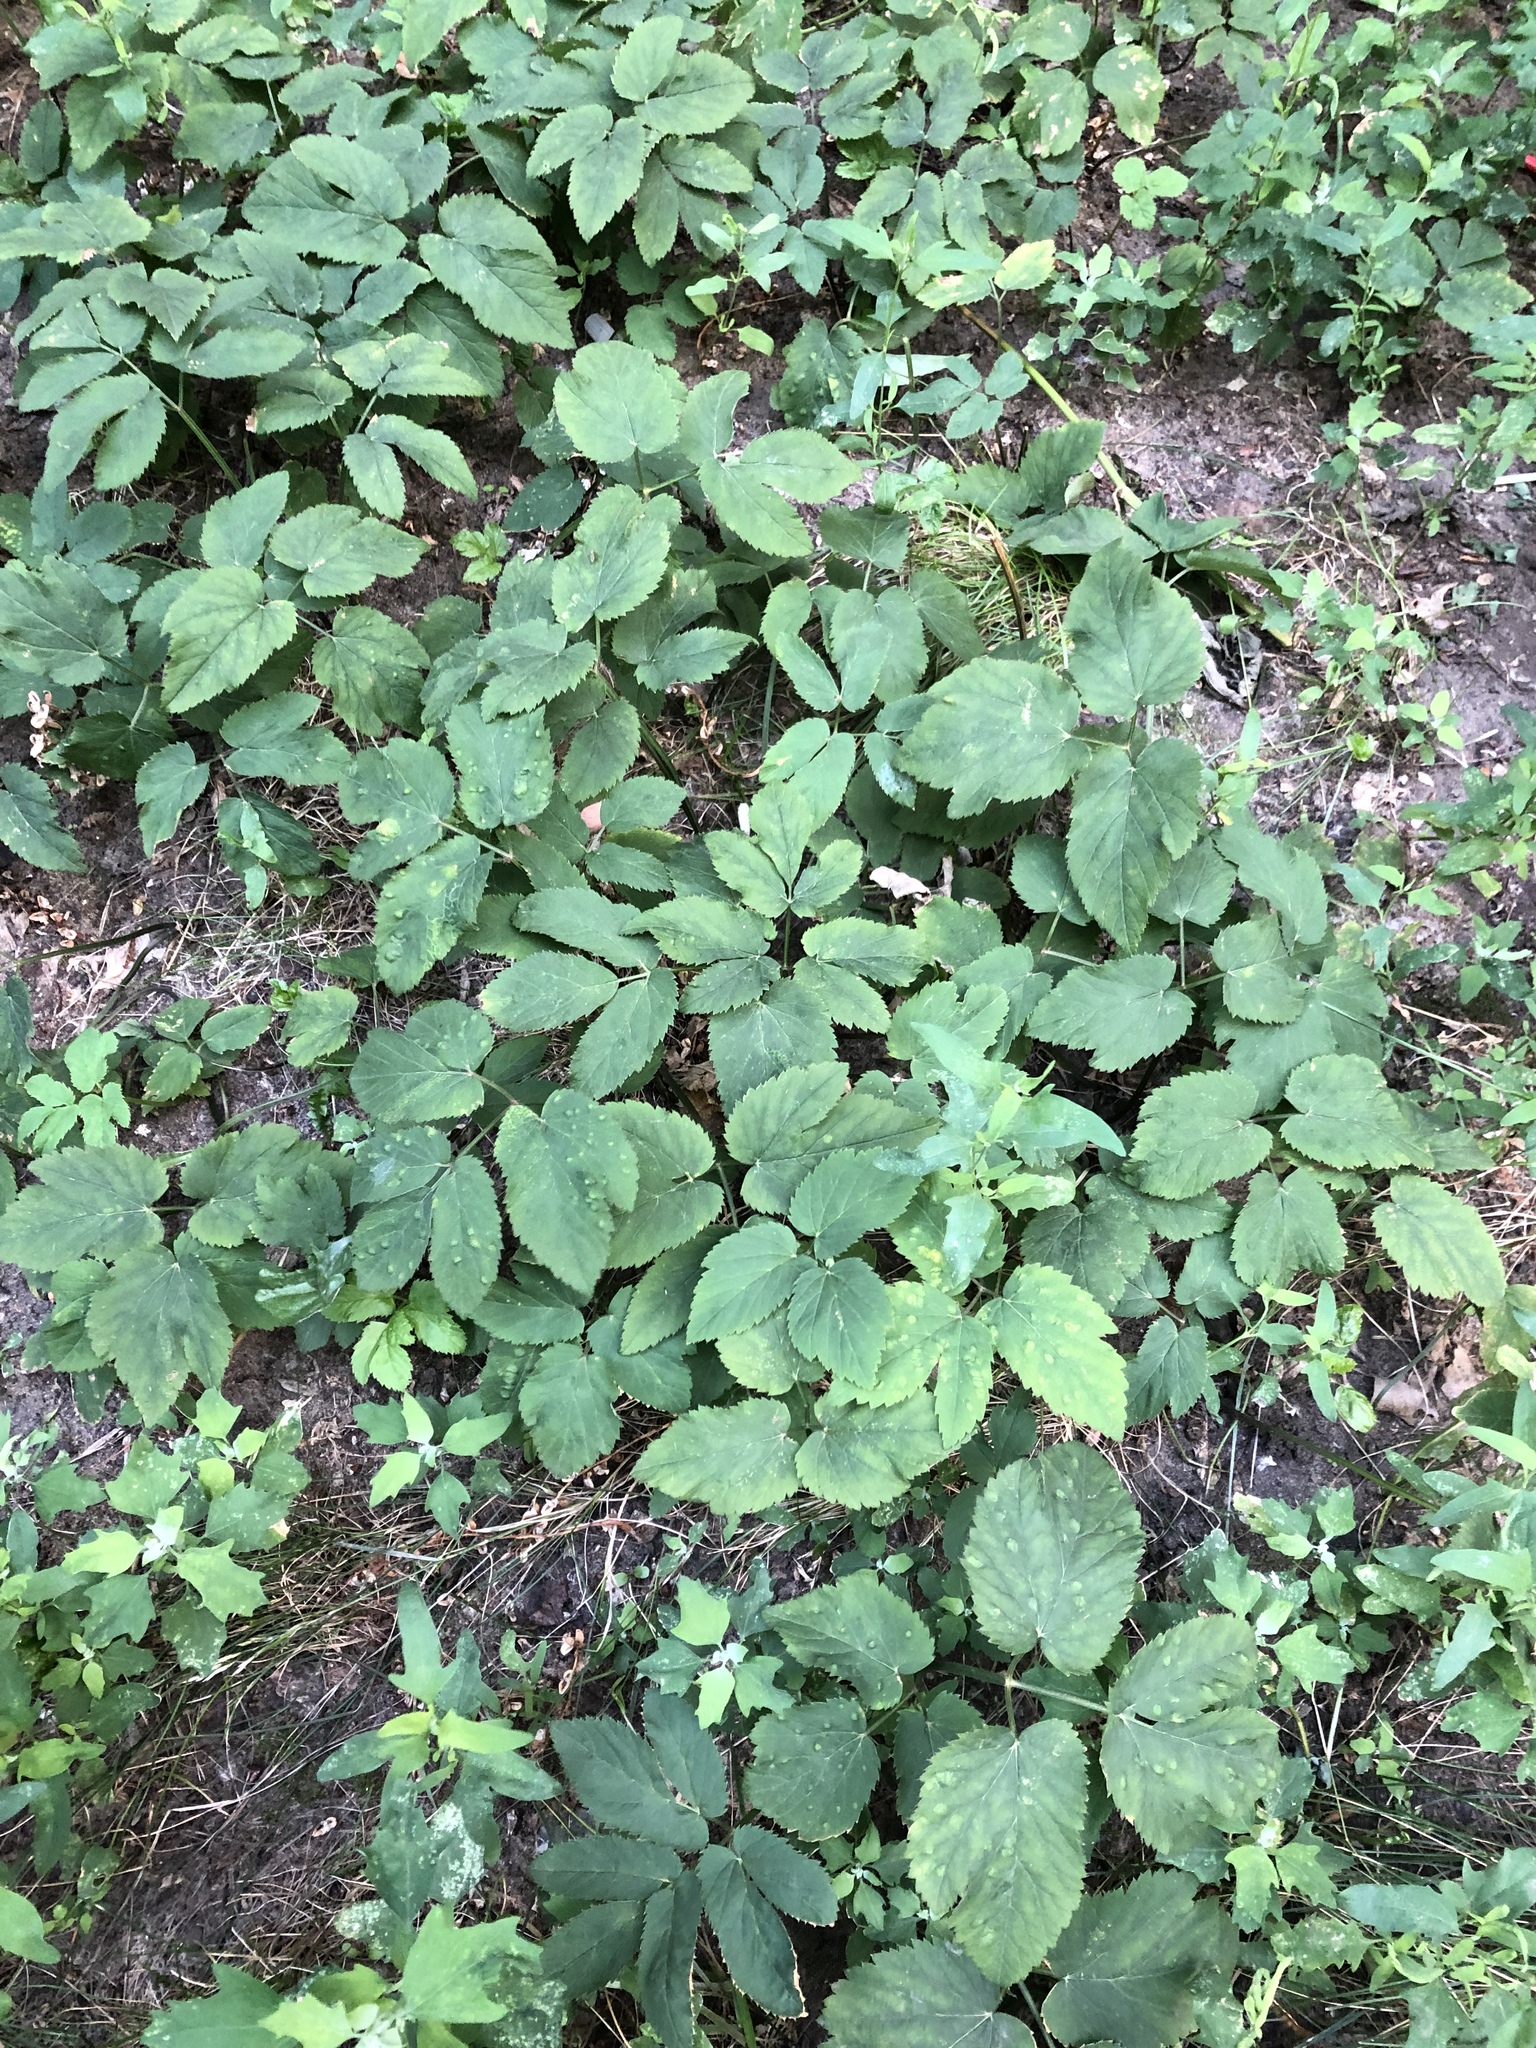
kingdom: Plantae
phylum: Tracheophyta
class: Magnoliopsida
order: Apiales
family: Apiaceae
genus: Aegopodium
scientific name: Aegopodium podagraria
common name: Ground-elder
